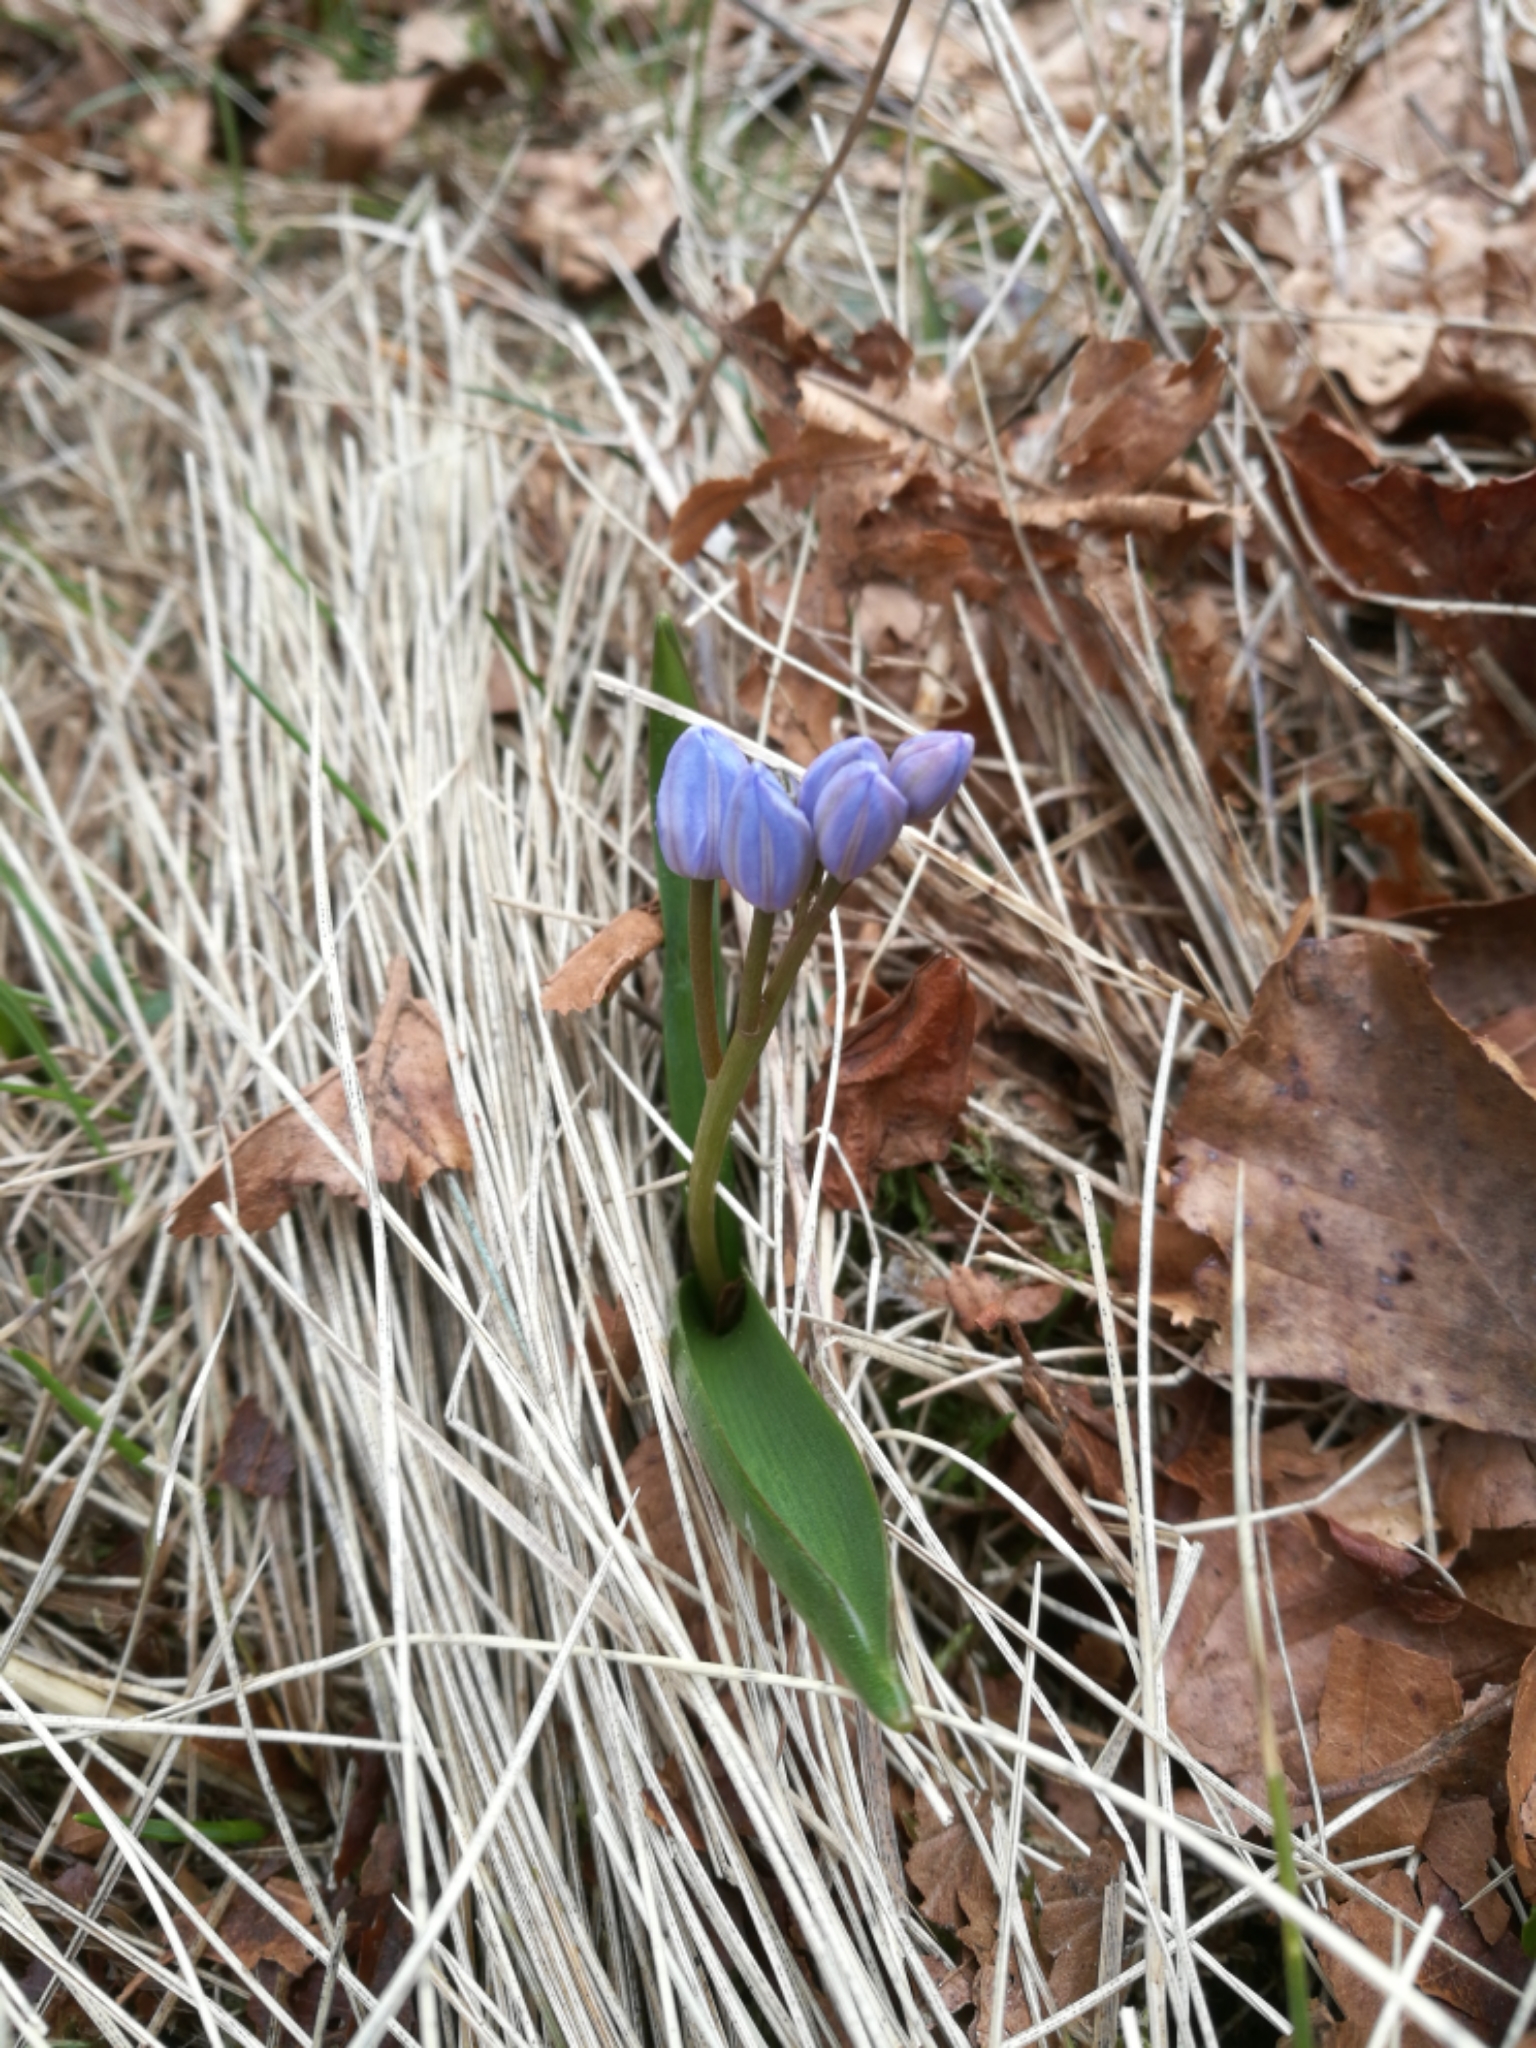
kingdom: Plantae
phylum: Tracheophyta
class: Liliopsida
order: Asparagales
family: Asparagaceae
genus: Scilla
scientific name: Scilla bifolia
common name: Alpine squill
